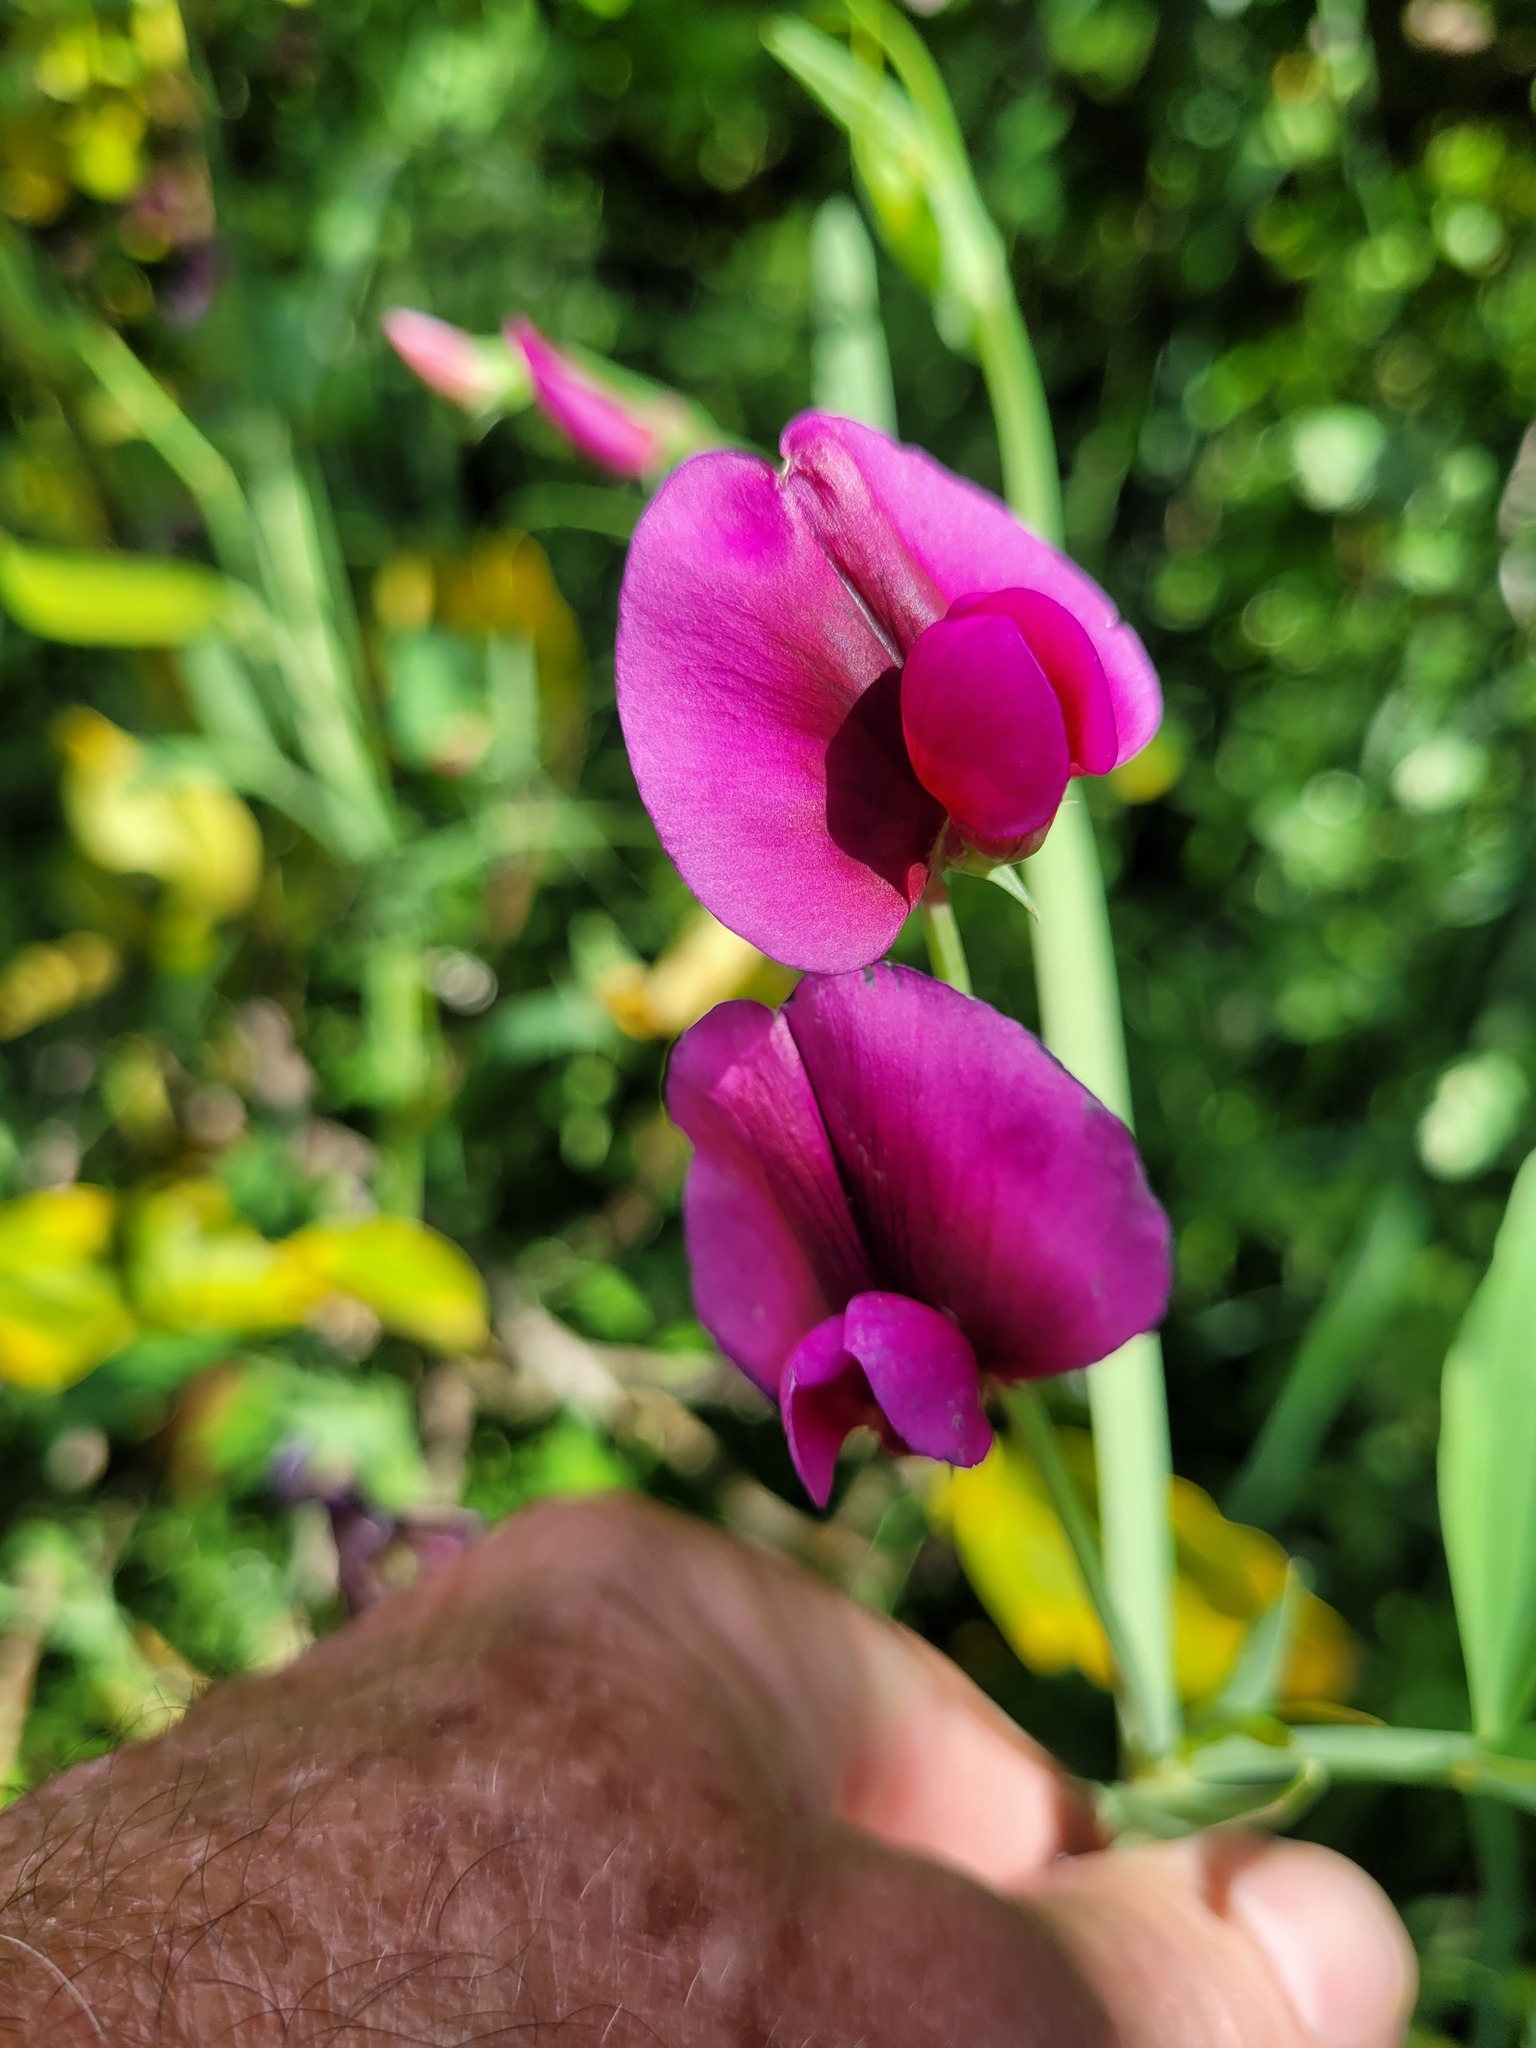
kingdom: Plantae
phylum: Tracheophyta
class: Magnoliopsida
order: Fabales
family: Fabaceae
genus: Lathyrus
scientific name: Lathyrus tingitanus
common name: Tangier pea
